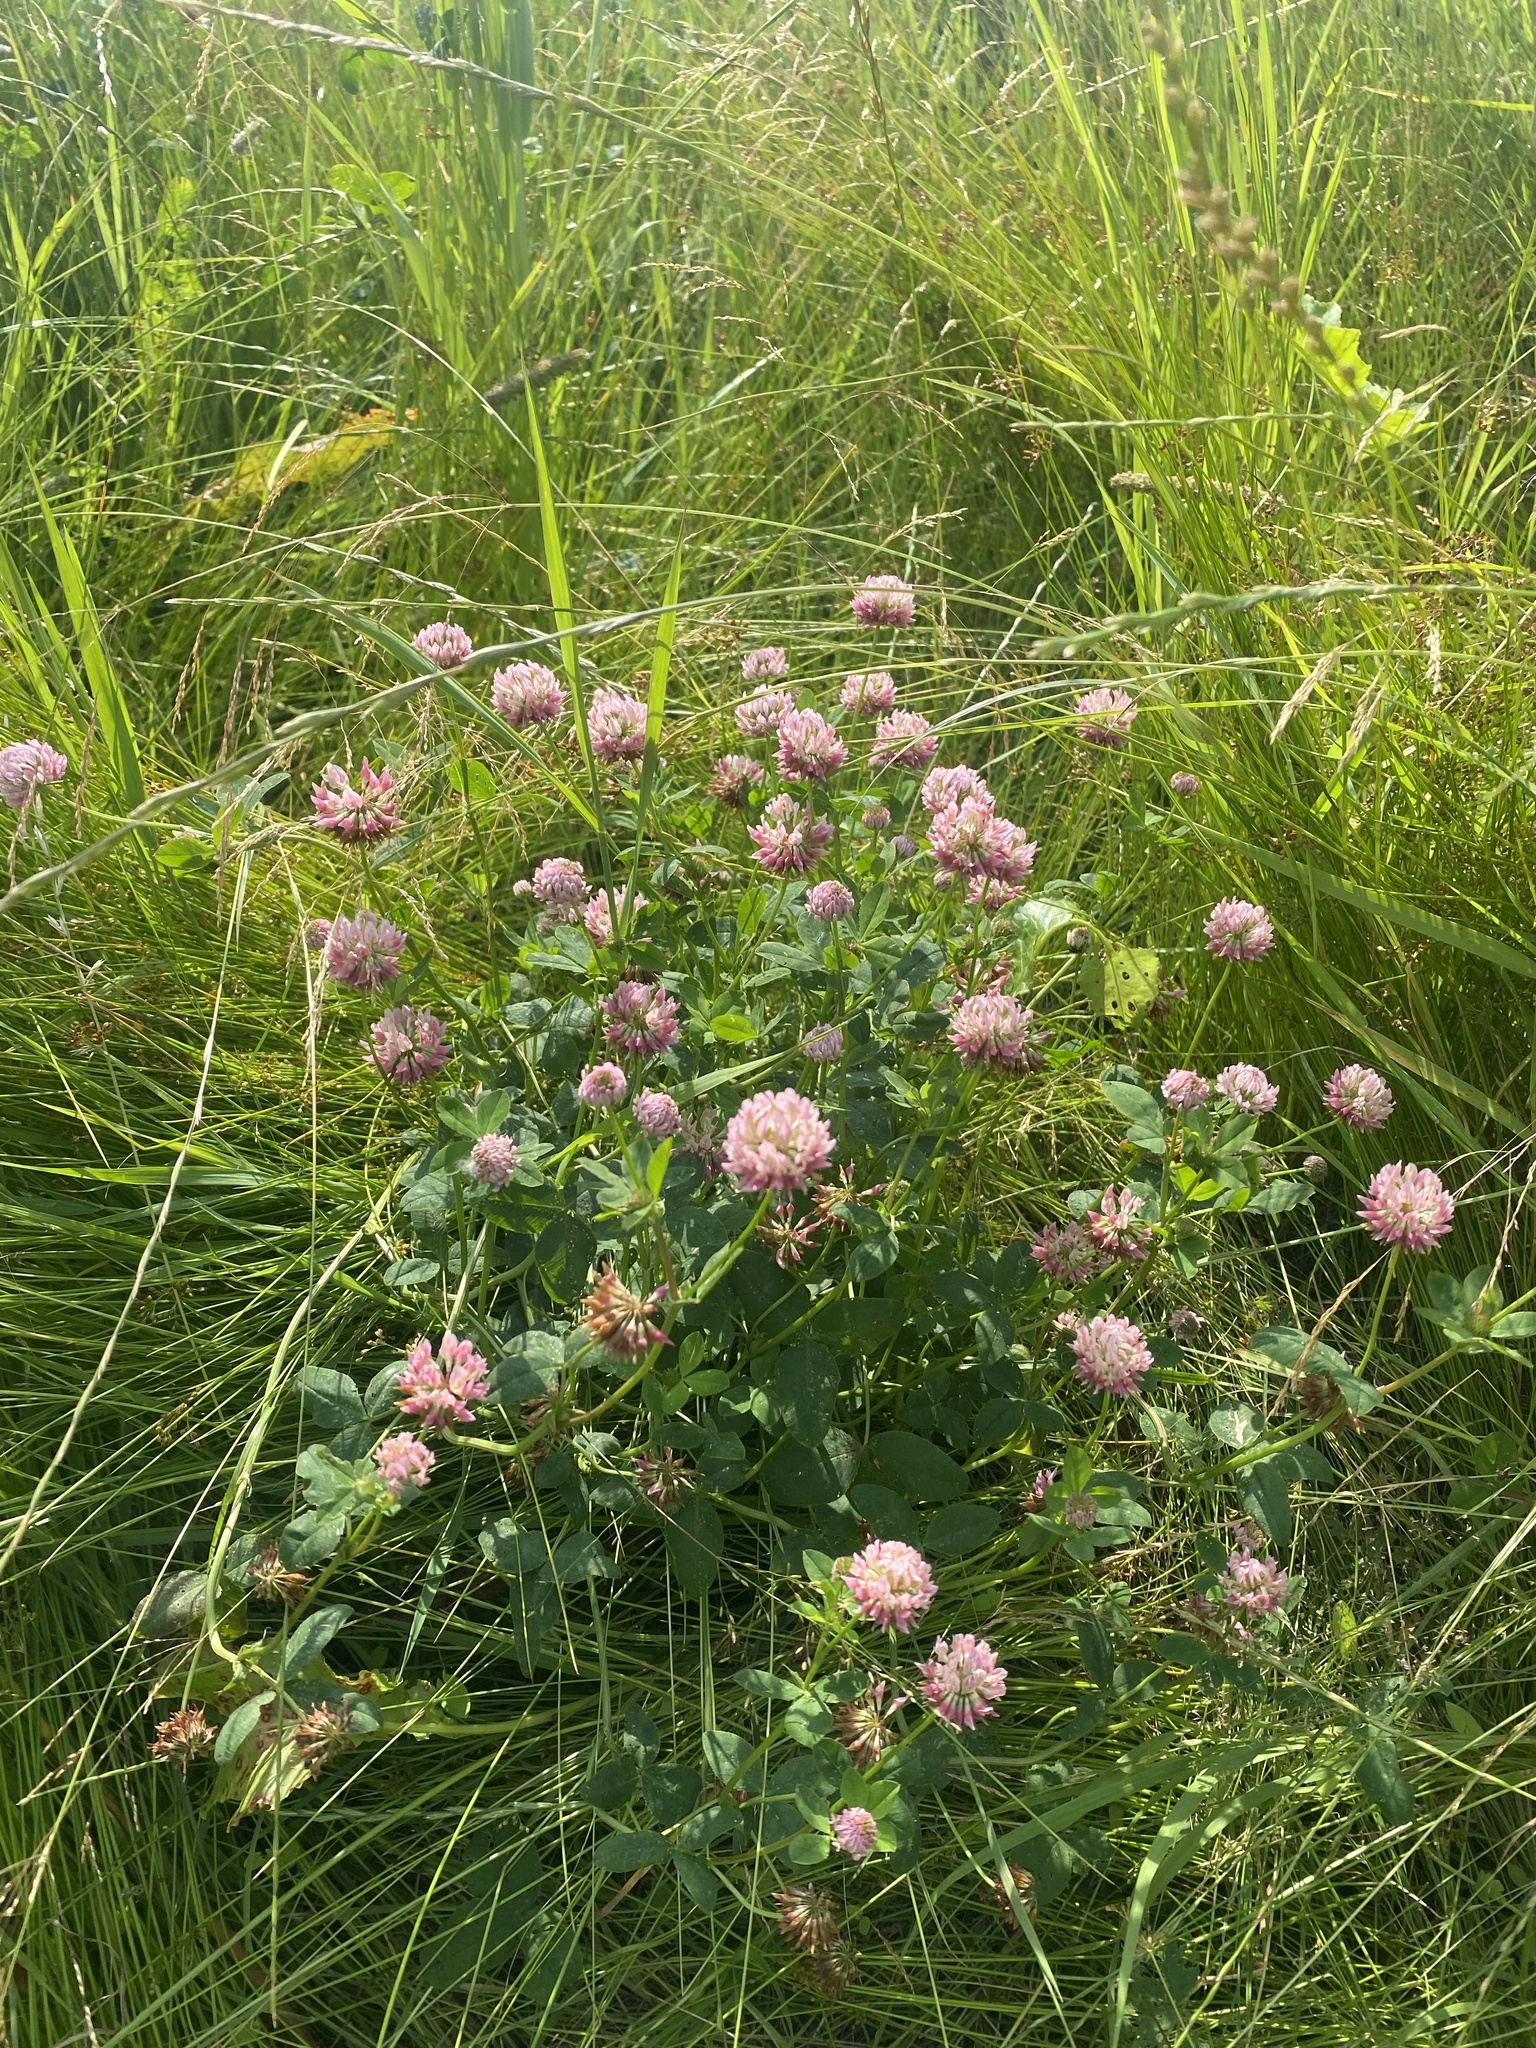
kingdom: Plantae
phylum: Tracheophyta
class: Magnoliopsida
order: Fabales
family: Fabaceae
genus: Trifolium
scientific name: Trifolium hybridum
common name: Alsike clover
